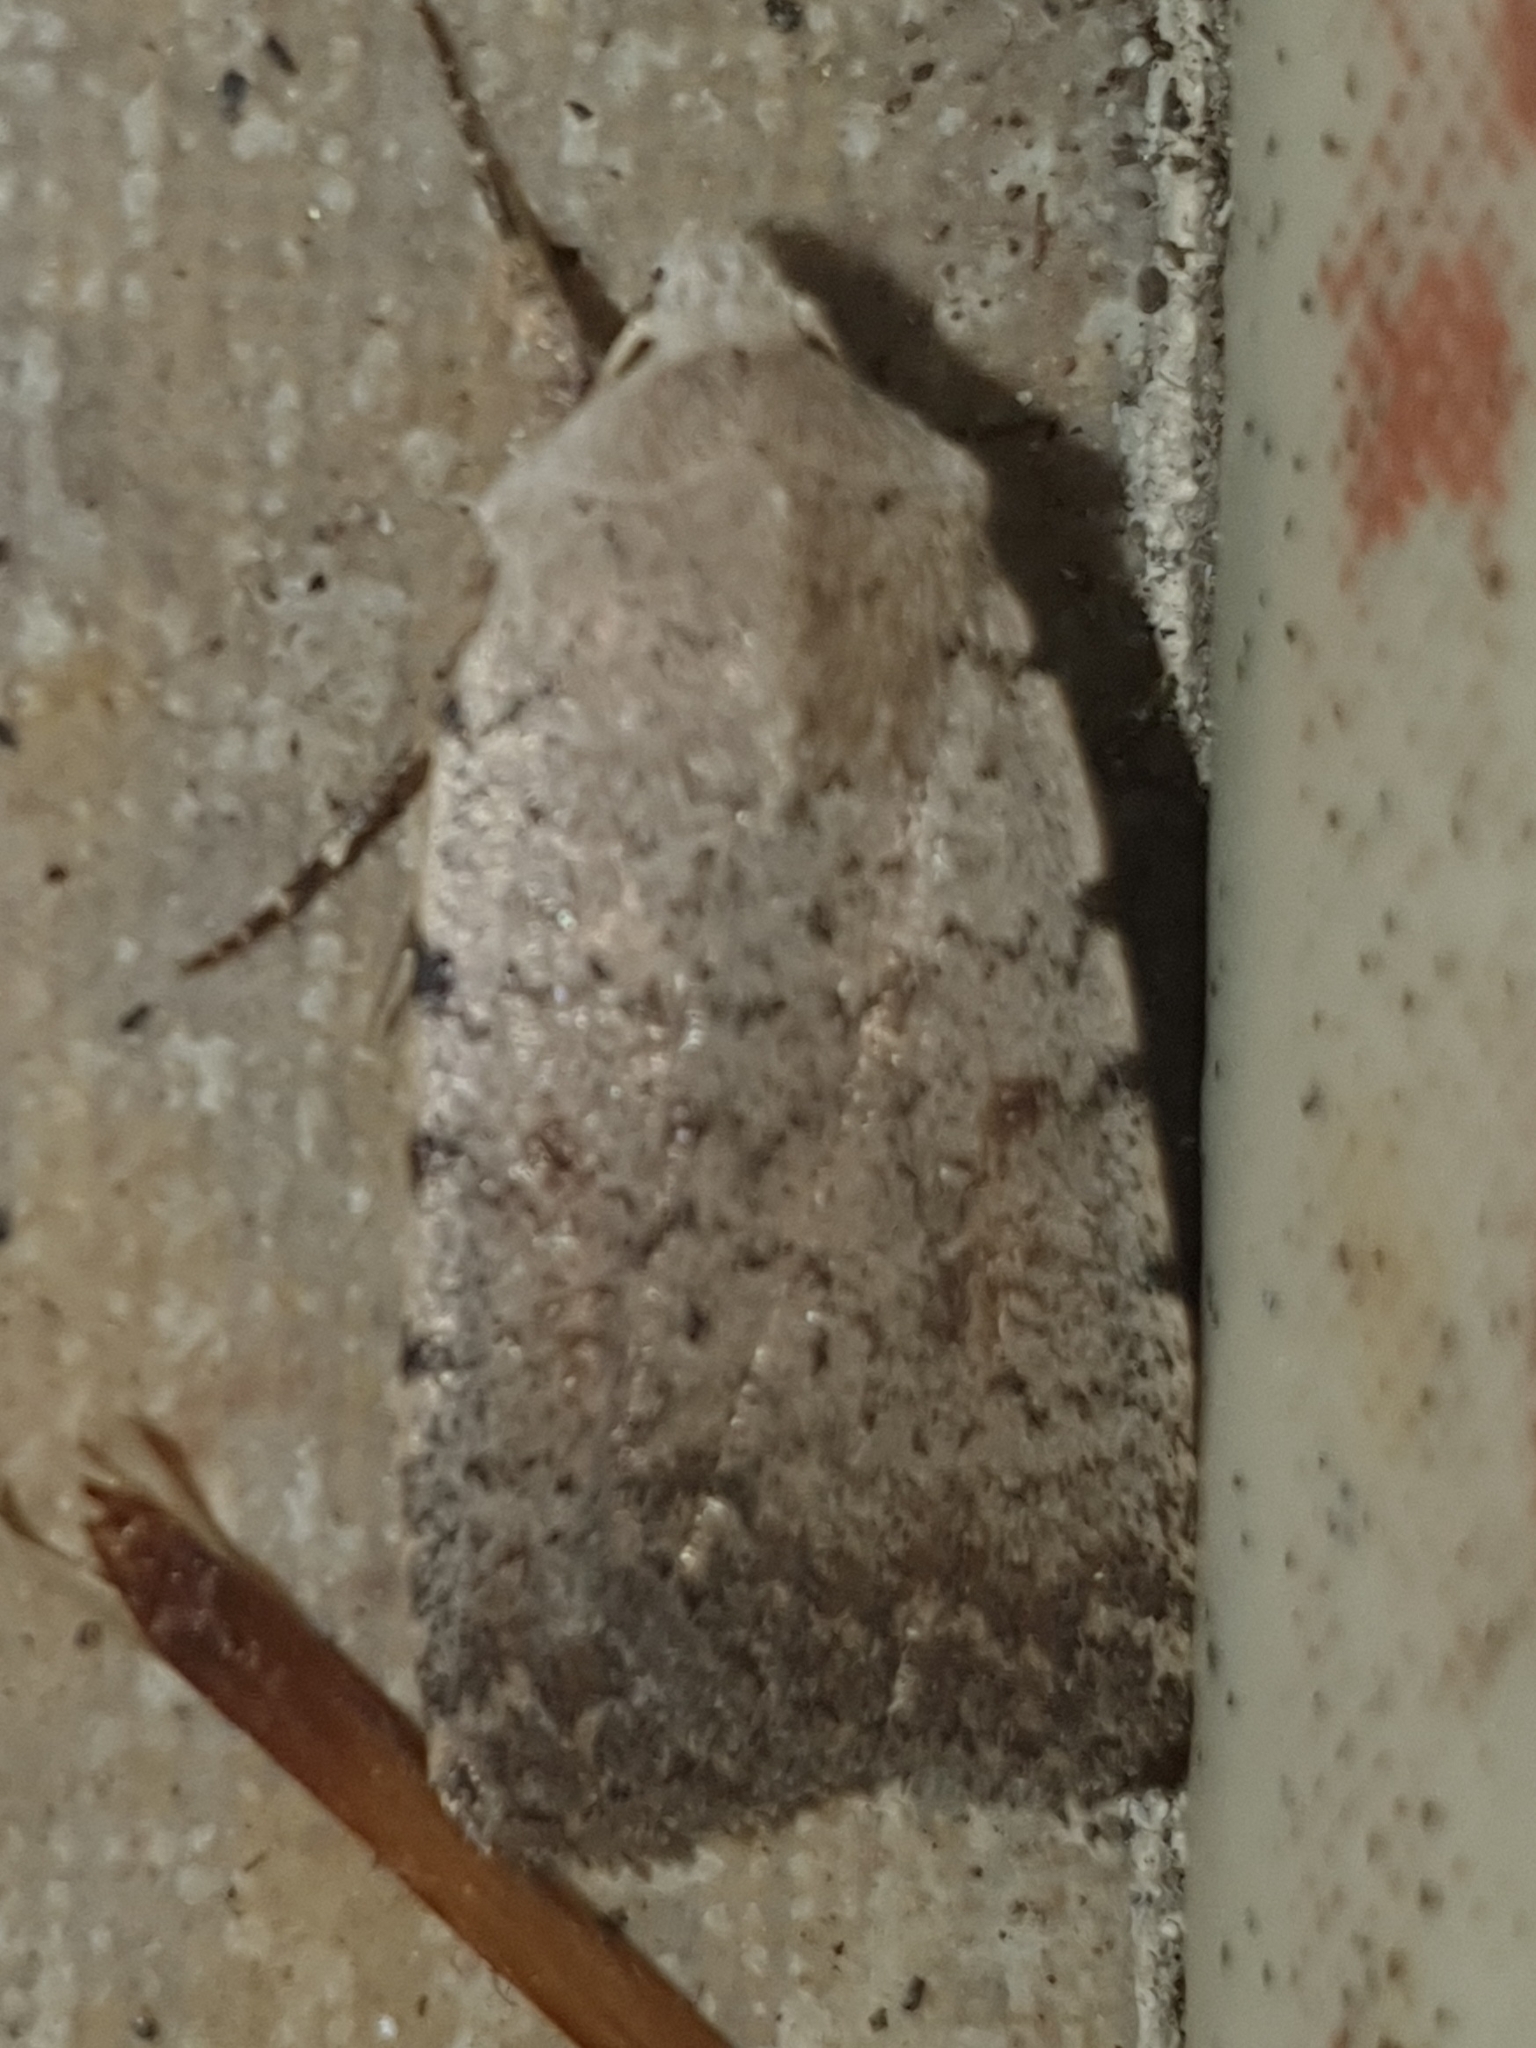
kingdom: Animalia
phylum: Arthropoda
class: Insecta
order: Lepidoptera
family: Noctuidae
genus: Caradrina
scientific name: Caradrina selini
